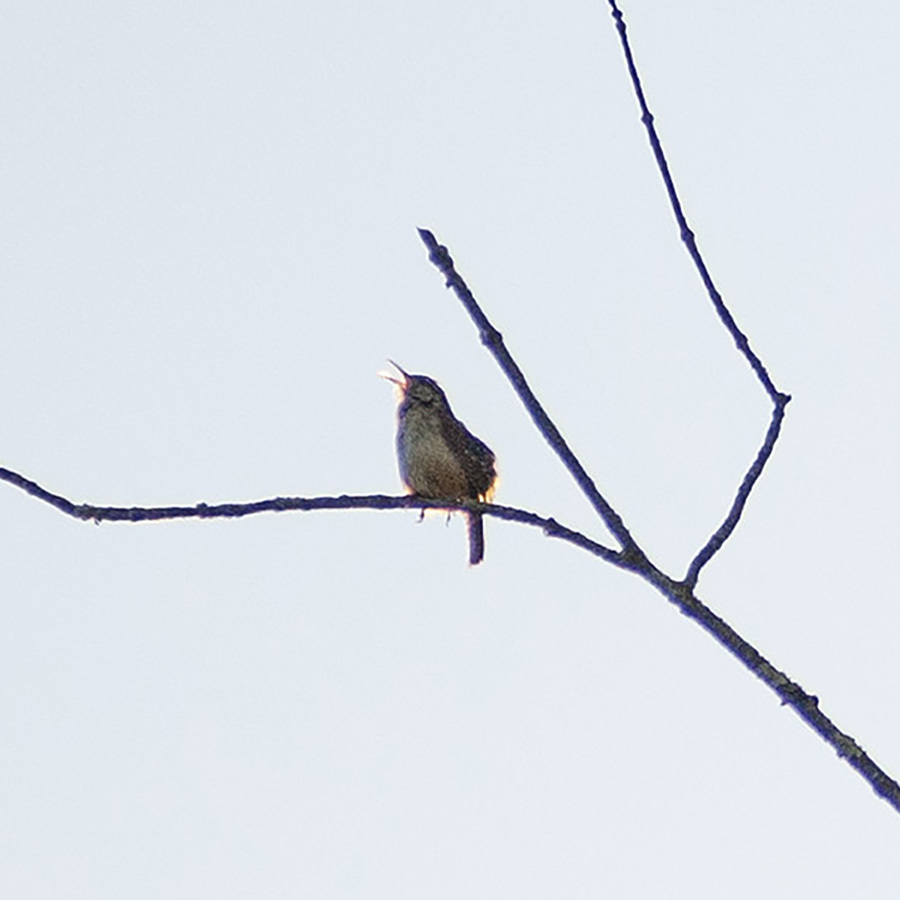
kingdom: Animalia
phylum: Chordata
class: Aves
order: Passeriformes
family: Troglodytidae
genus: Thryothorus
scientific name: Thryothorus ludovicianus
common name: Carolina wren
